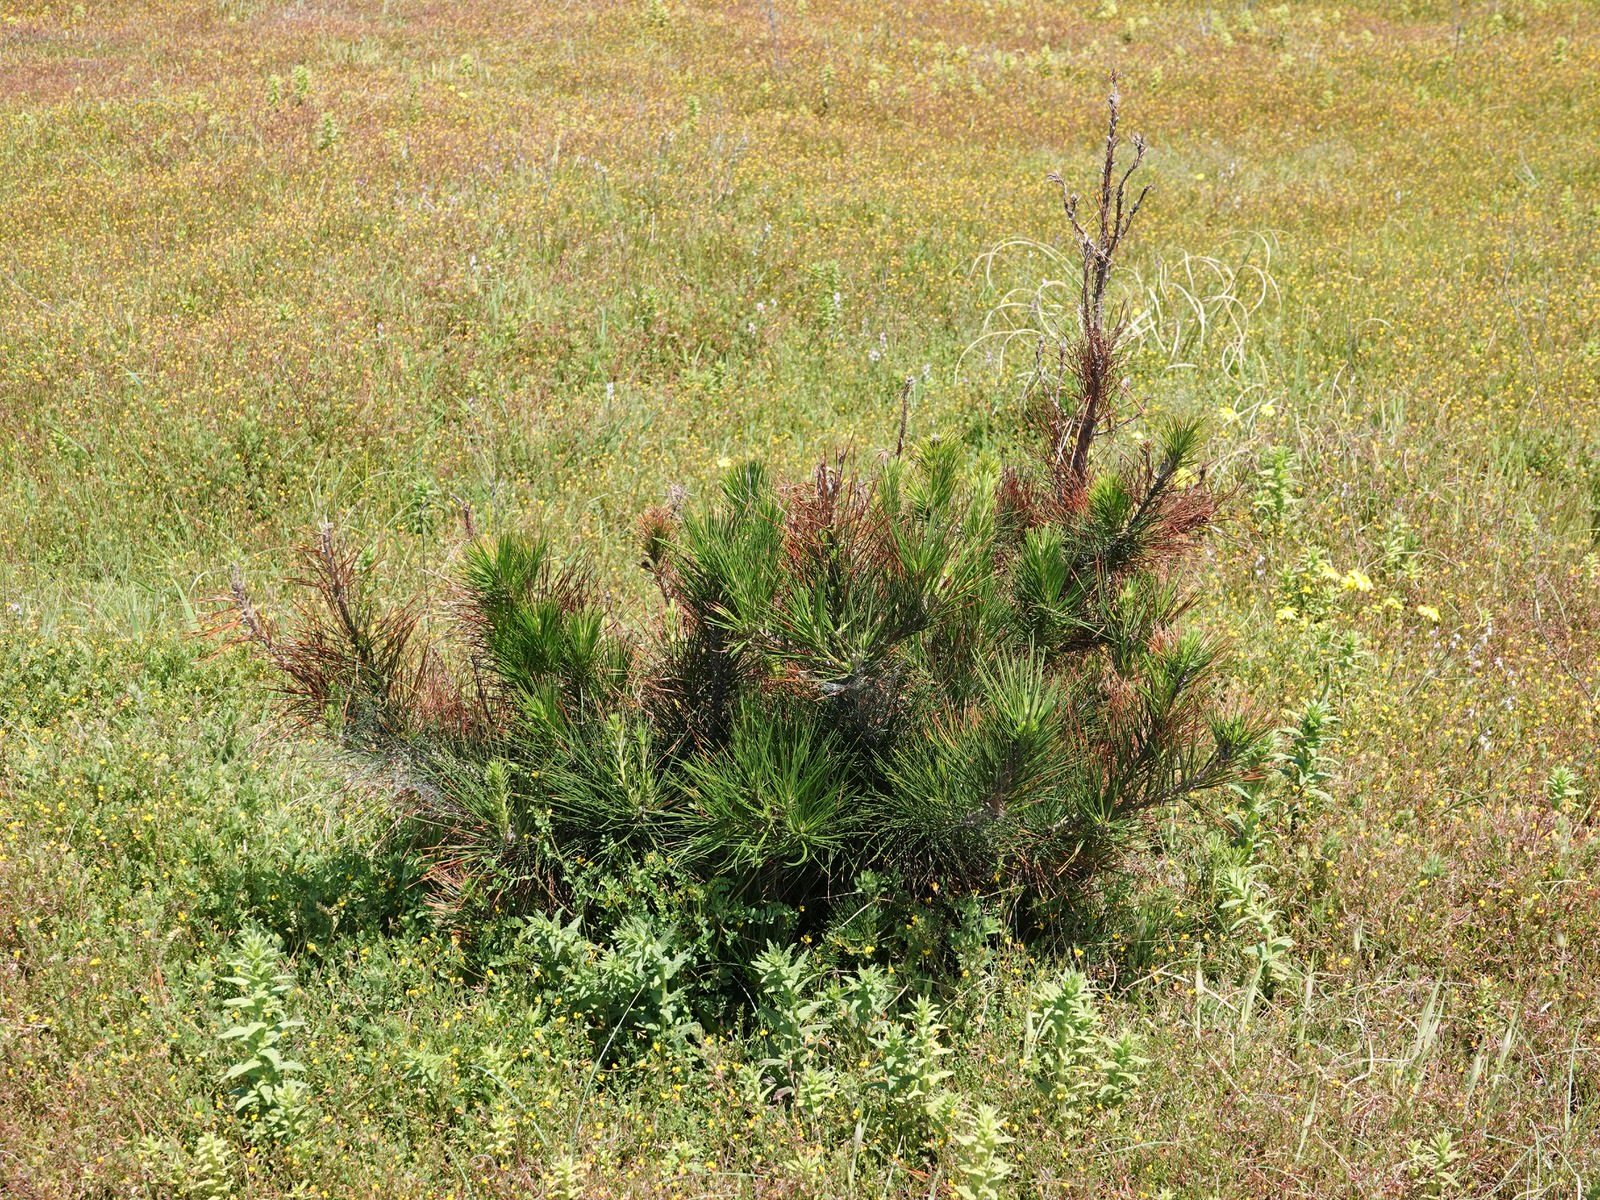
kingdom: Plantae
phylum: Tracheophyta
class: Pinopsida
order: Pinales
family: Pinaceae
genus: Pinus
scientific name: Pinus radiata
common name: Monterey pine
